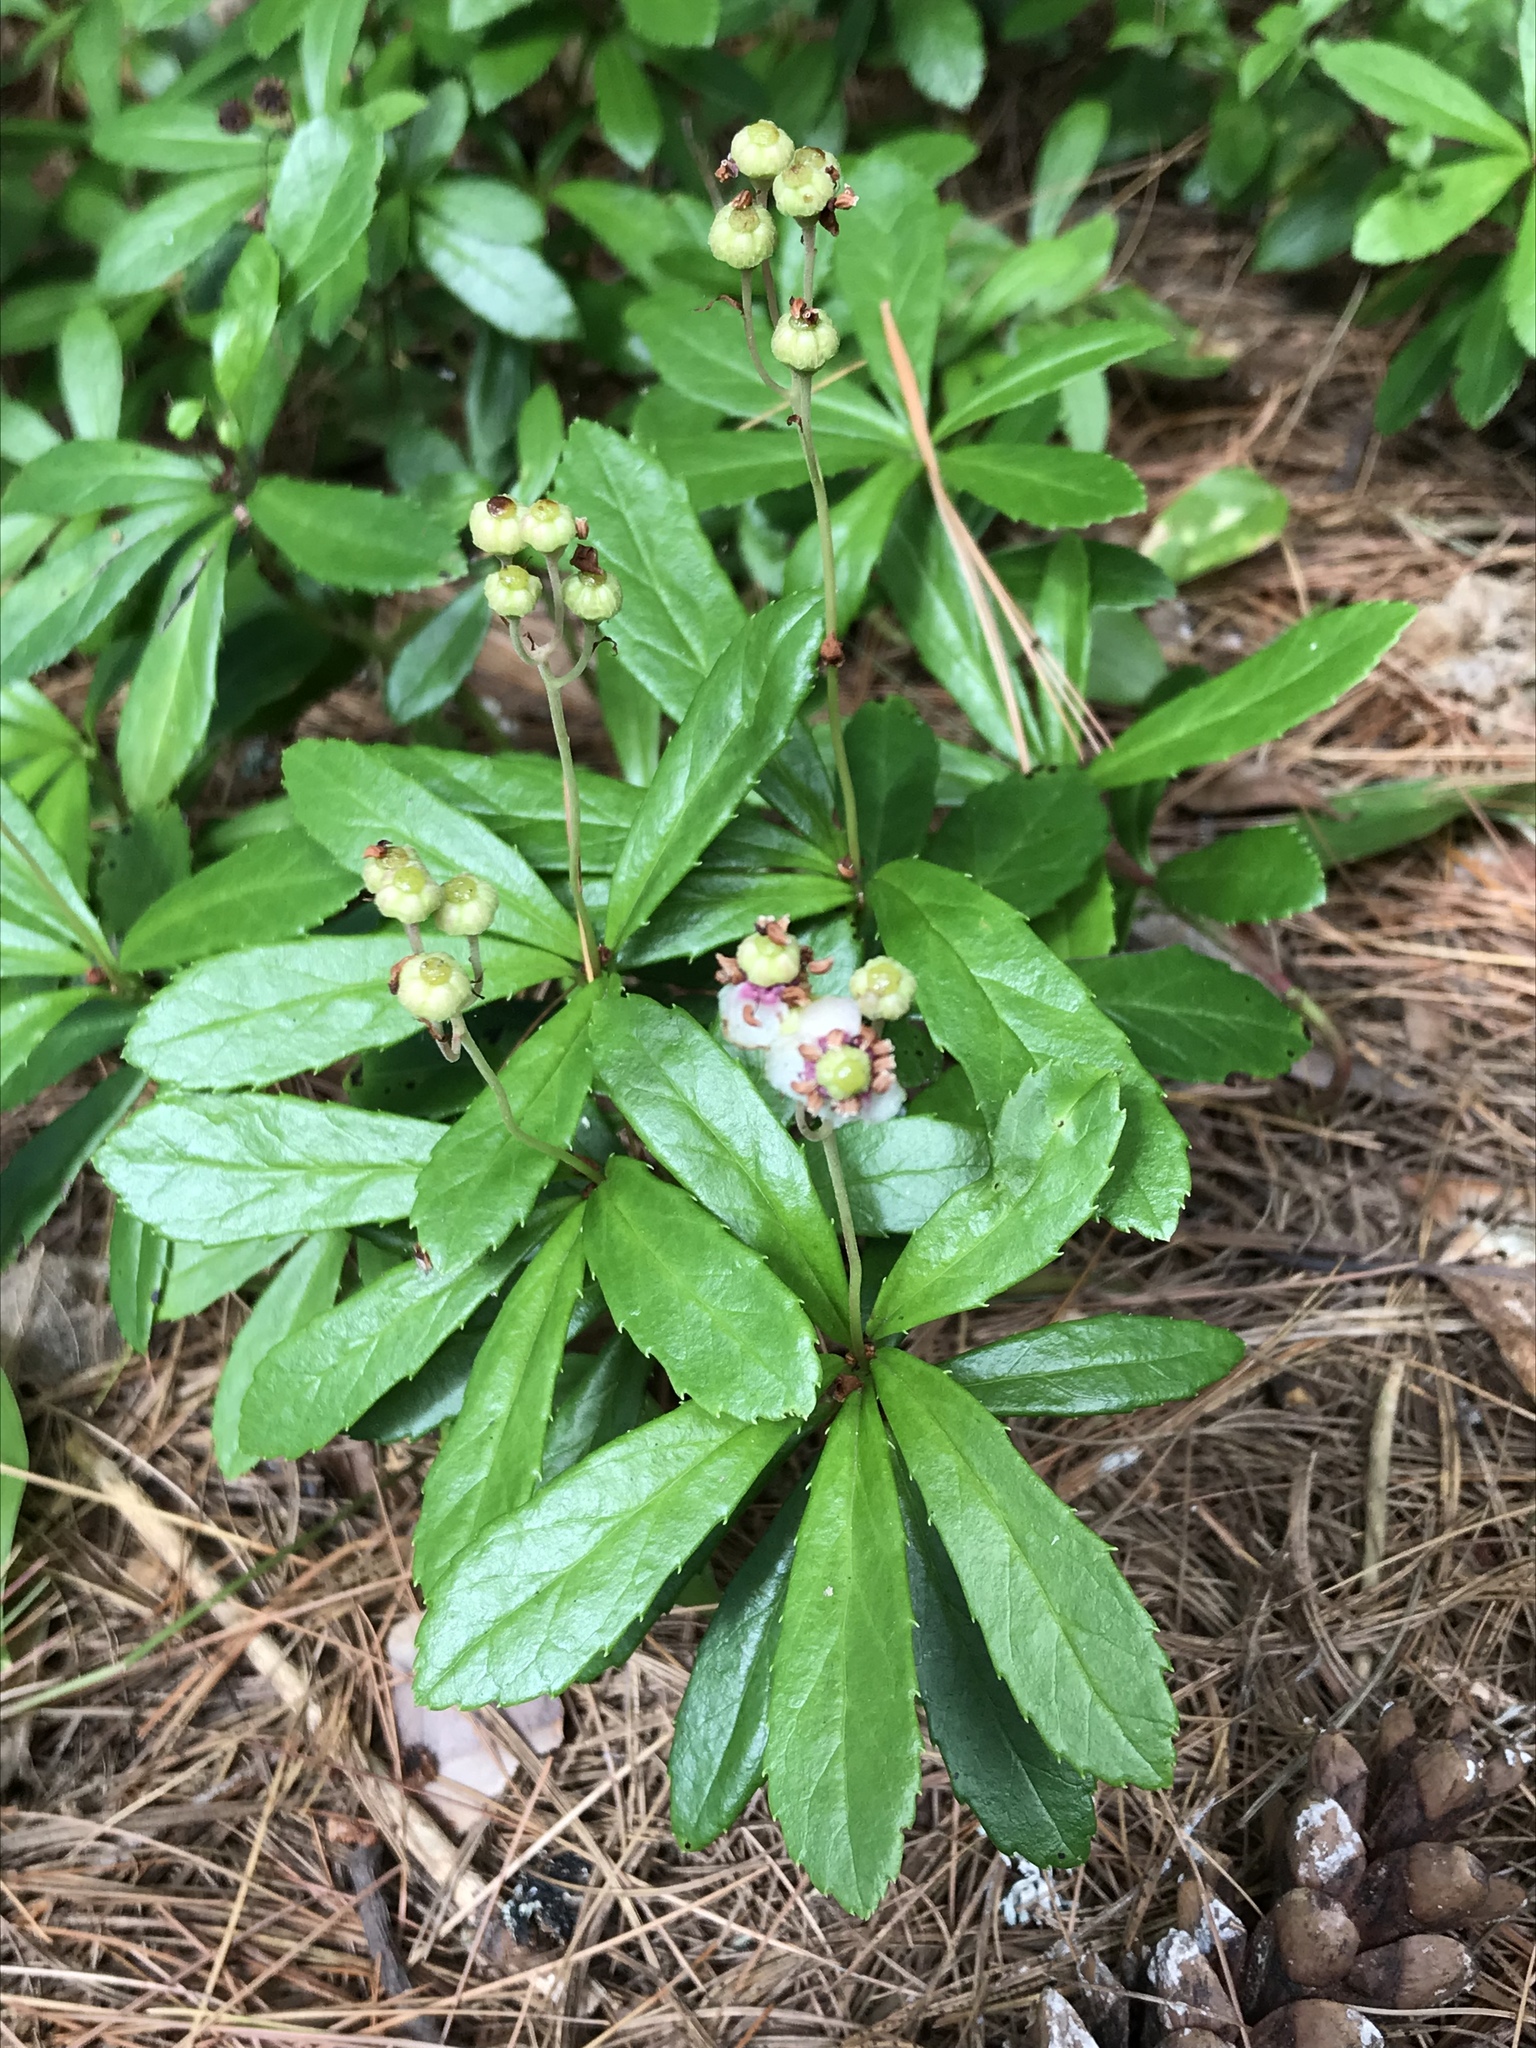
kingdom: Plantae
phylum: Tracheophyta
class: Magnoliopsida
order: Ericales
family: Ericaceae
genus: Chimaphila
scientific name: Chimaphila umbellata
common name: Pipsissewa
